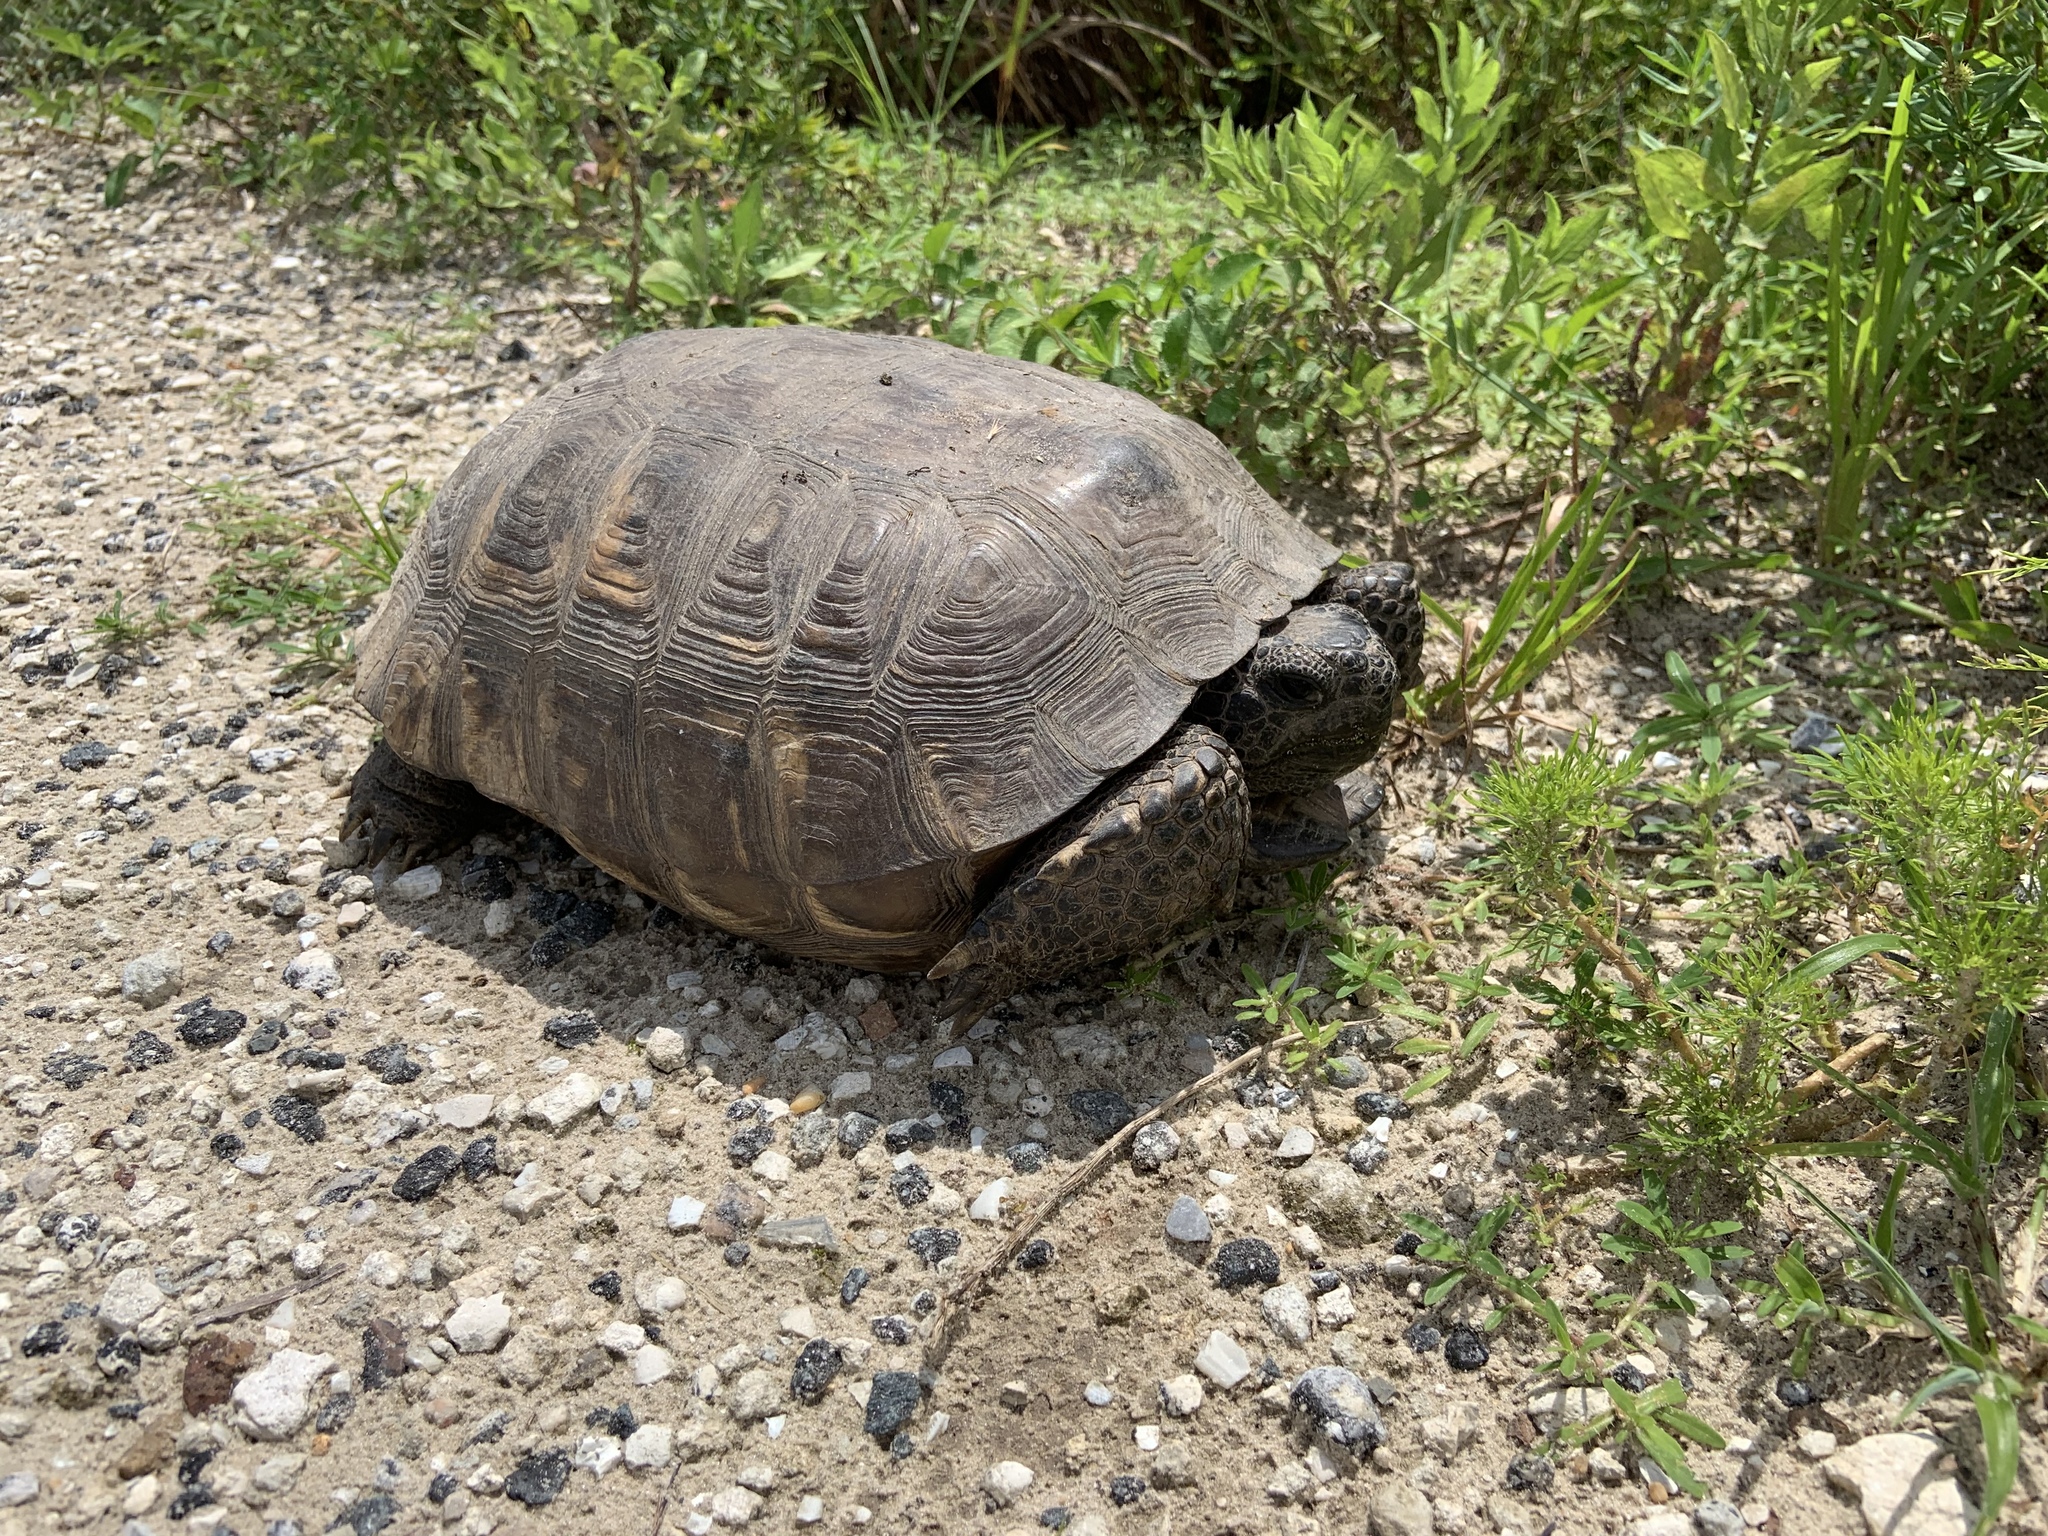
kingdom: Animalia
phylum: Chordata
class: Testudines
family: Testudinidae
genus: Gopherus
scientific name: Gopherus polyphemus
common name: Florida gopher tortoise
